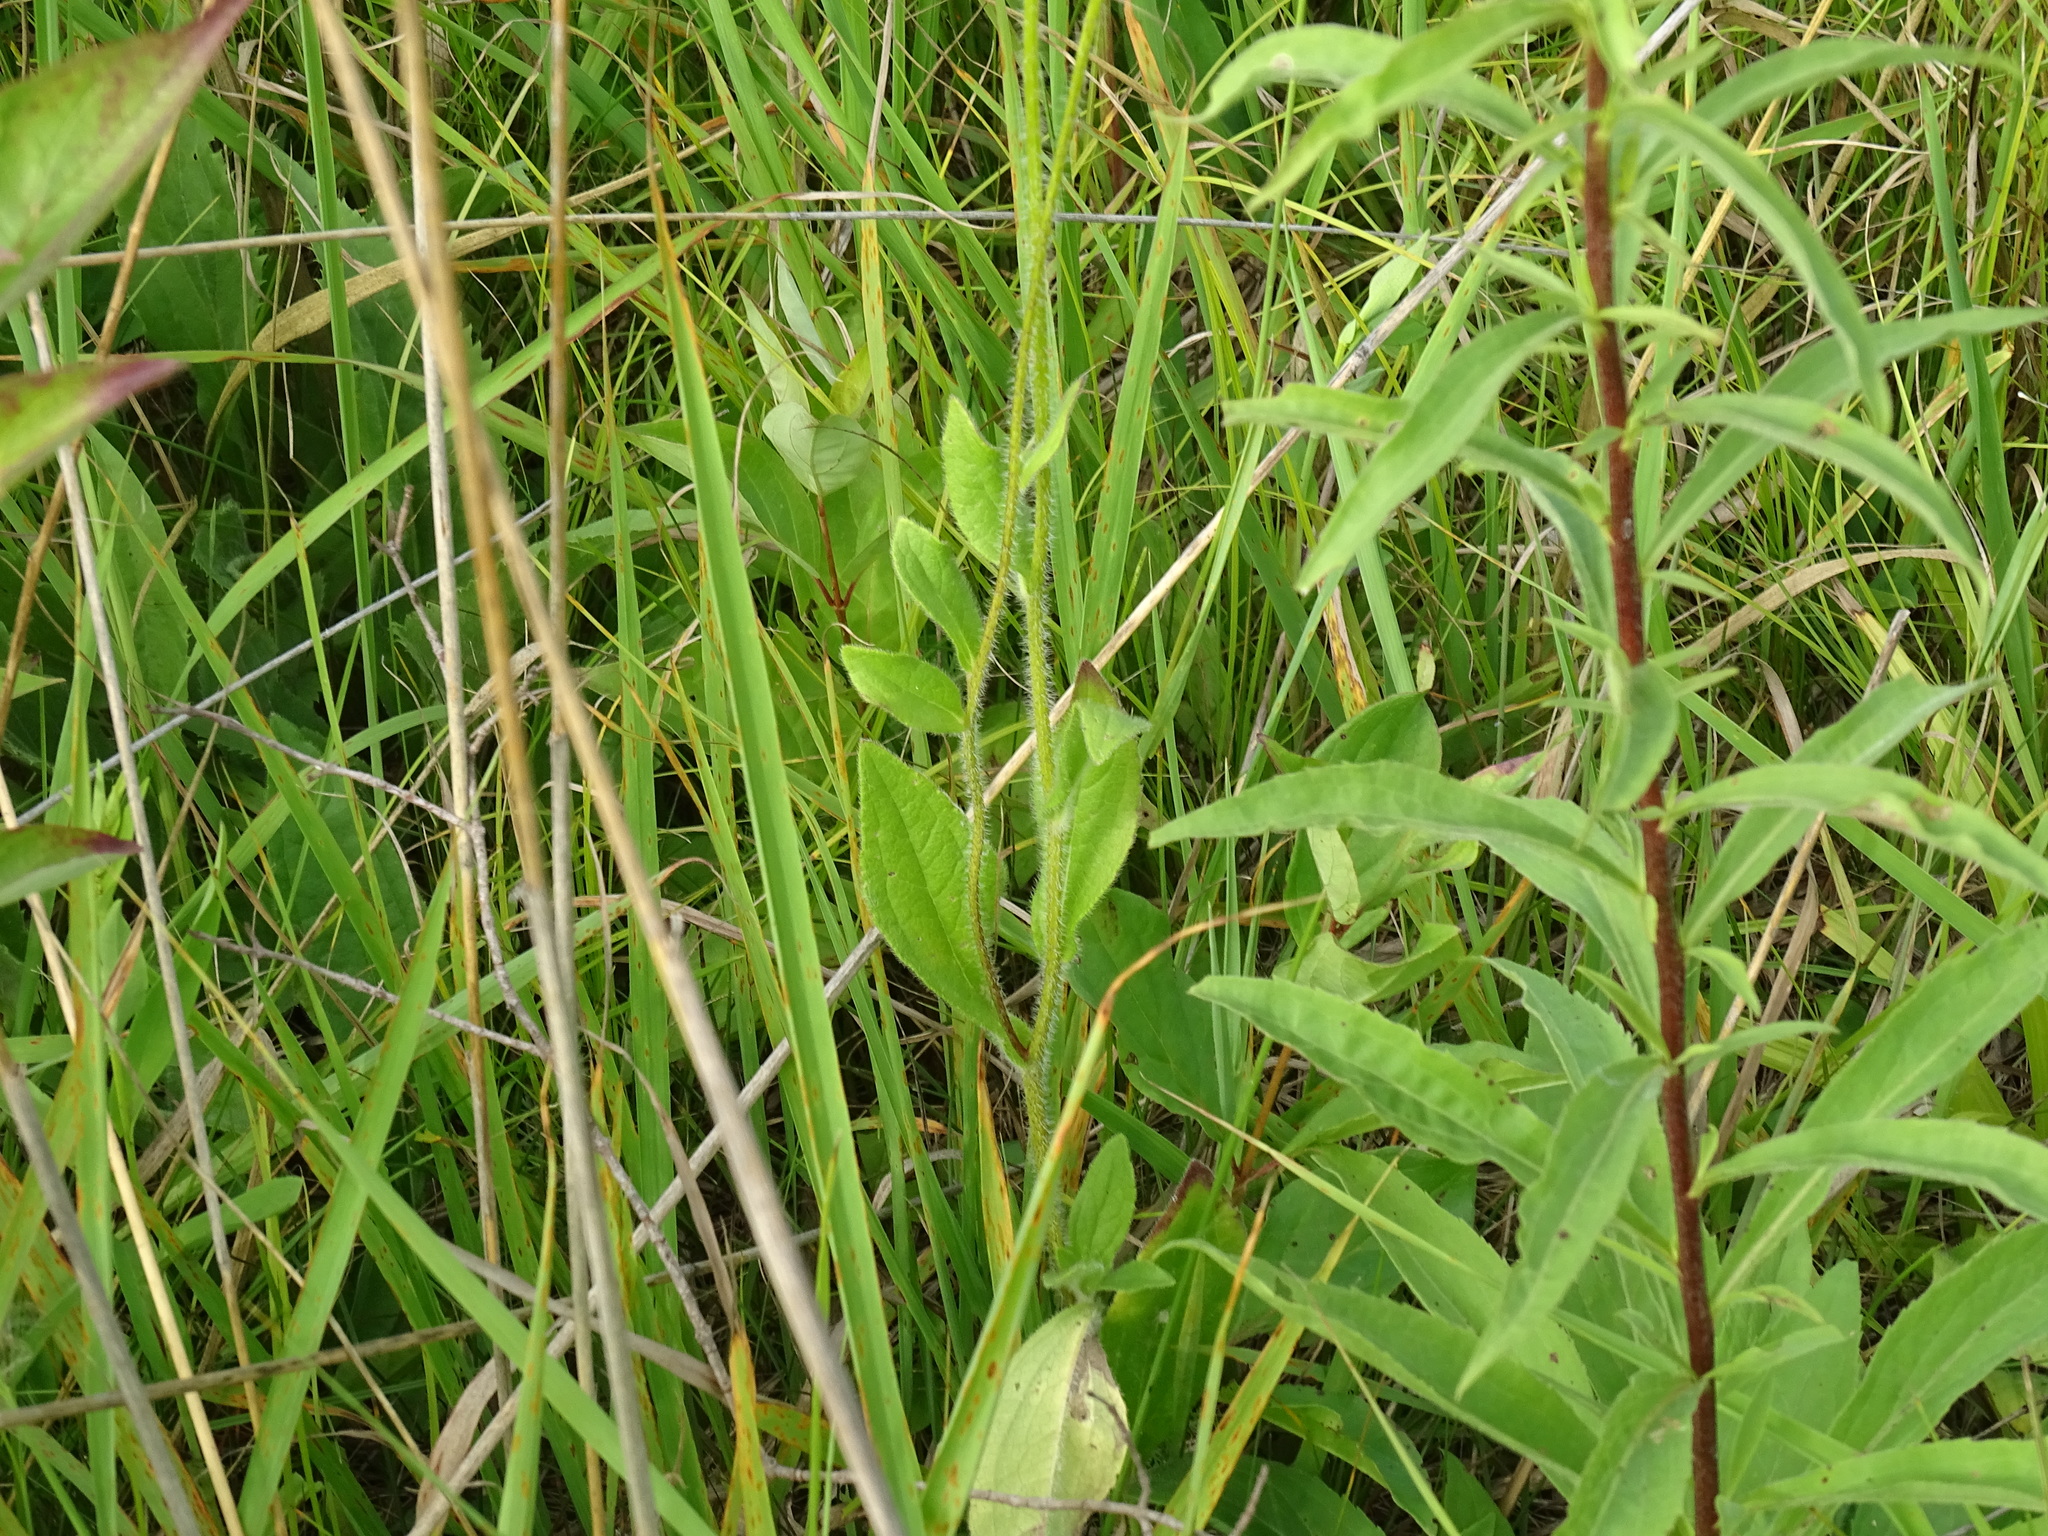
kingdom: Plantae
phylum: Tracheophyta
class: Magnoliopsida
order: Asterales
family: Asteraceae
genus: Rudbeckia
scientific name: Rudbeckia hirta
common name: Black-eyed-susan
